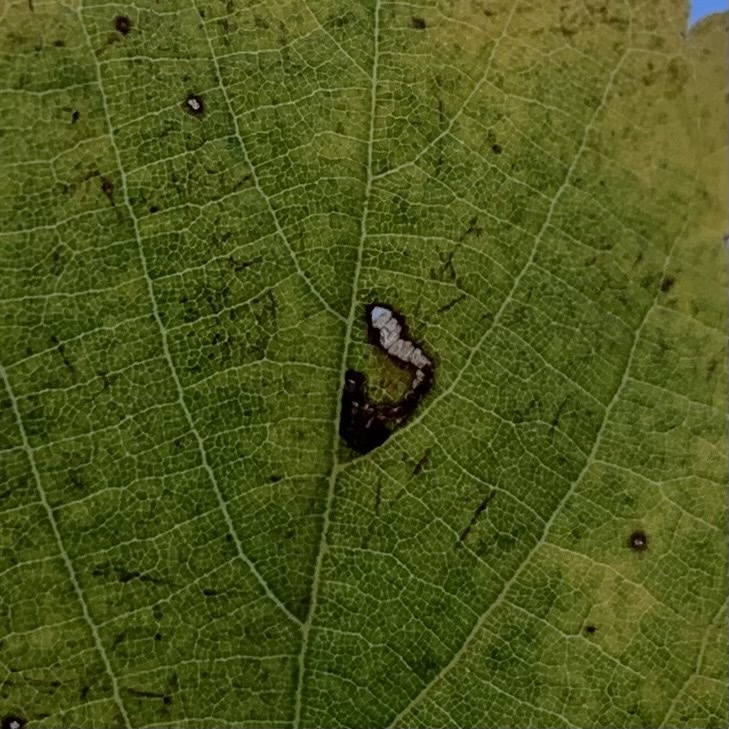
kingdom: Animalia
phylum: Arthropoda
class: Insecta
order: Lepidoptera
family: Bucculatricidae
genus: Bucculatrix
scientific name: Bucculatrix thoracella
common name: Lime bent-wing
